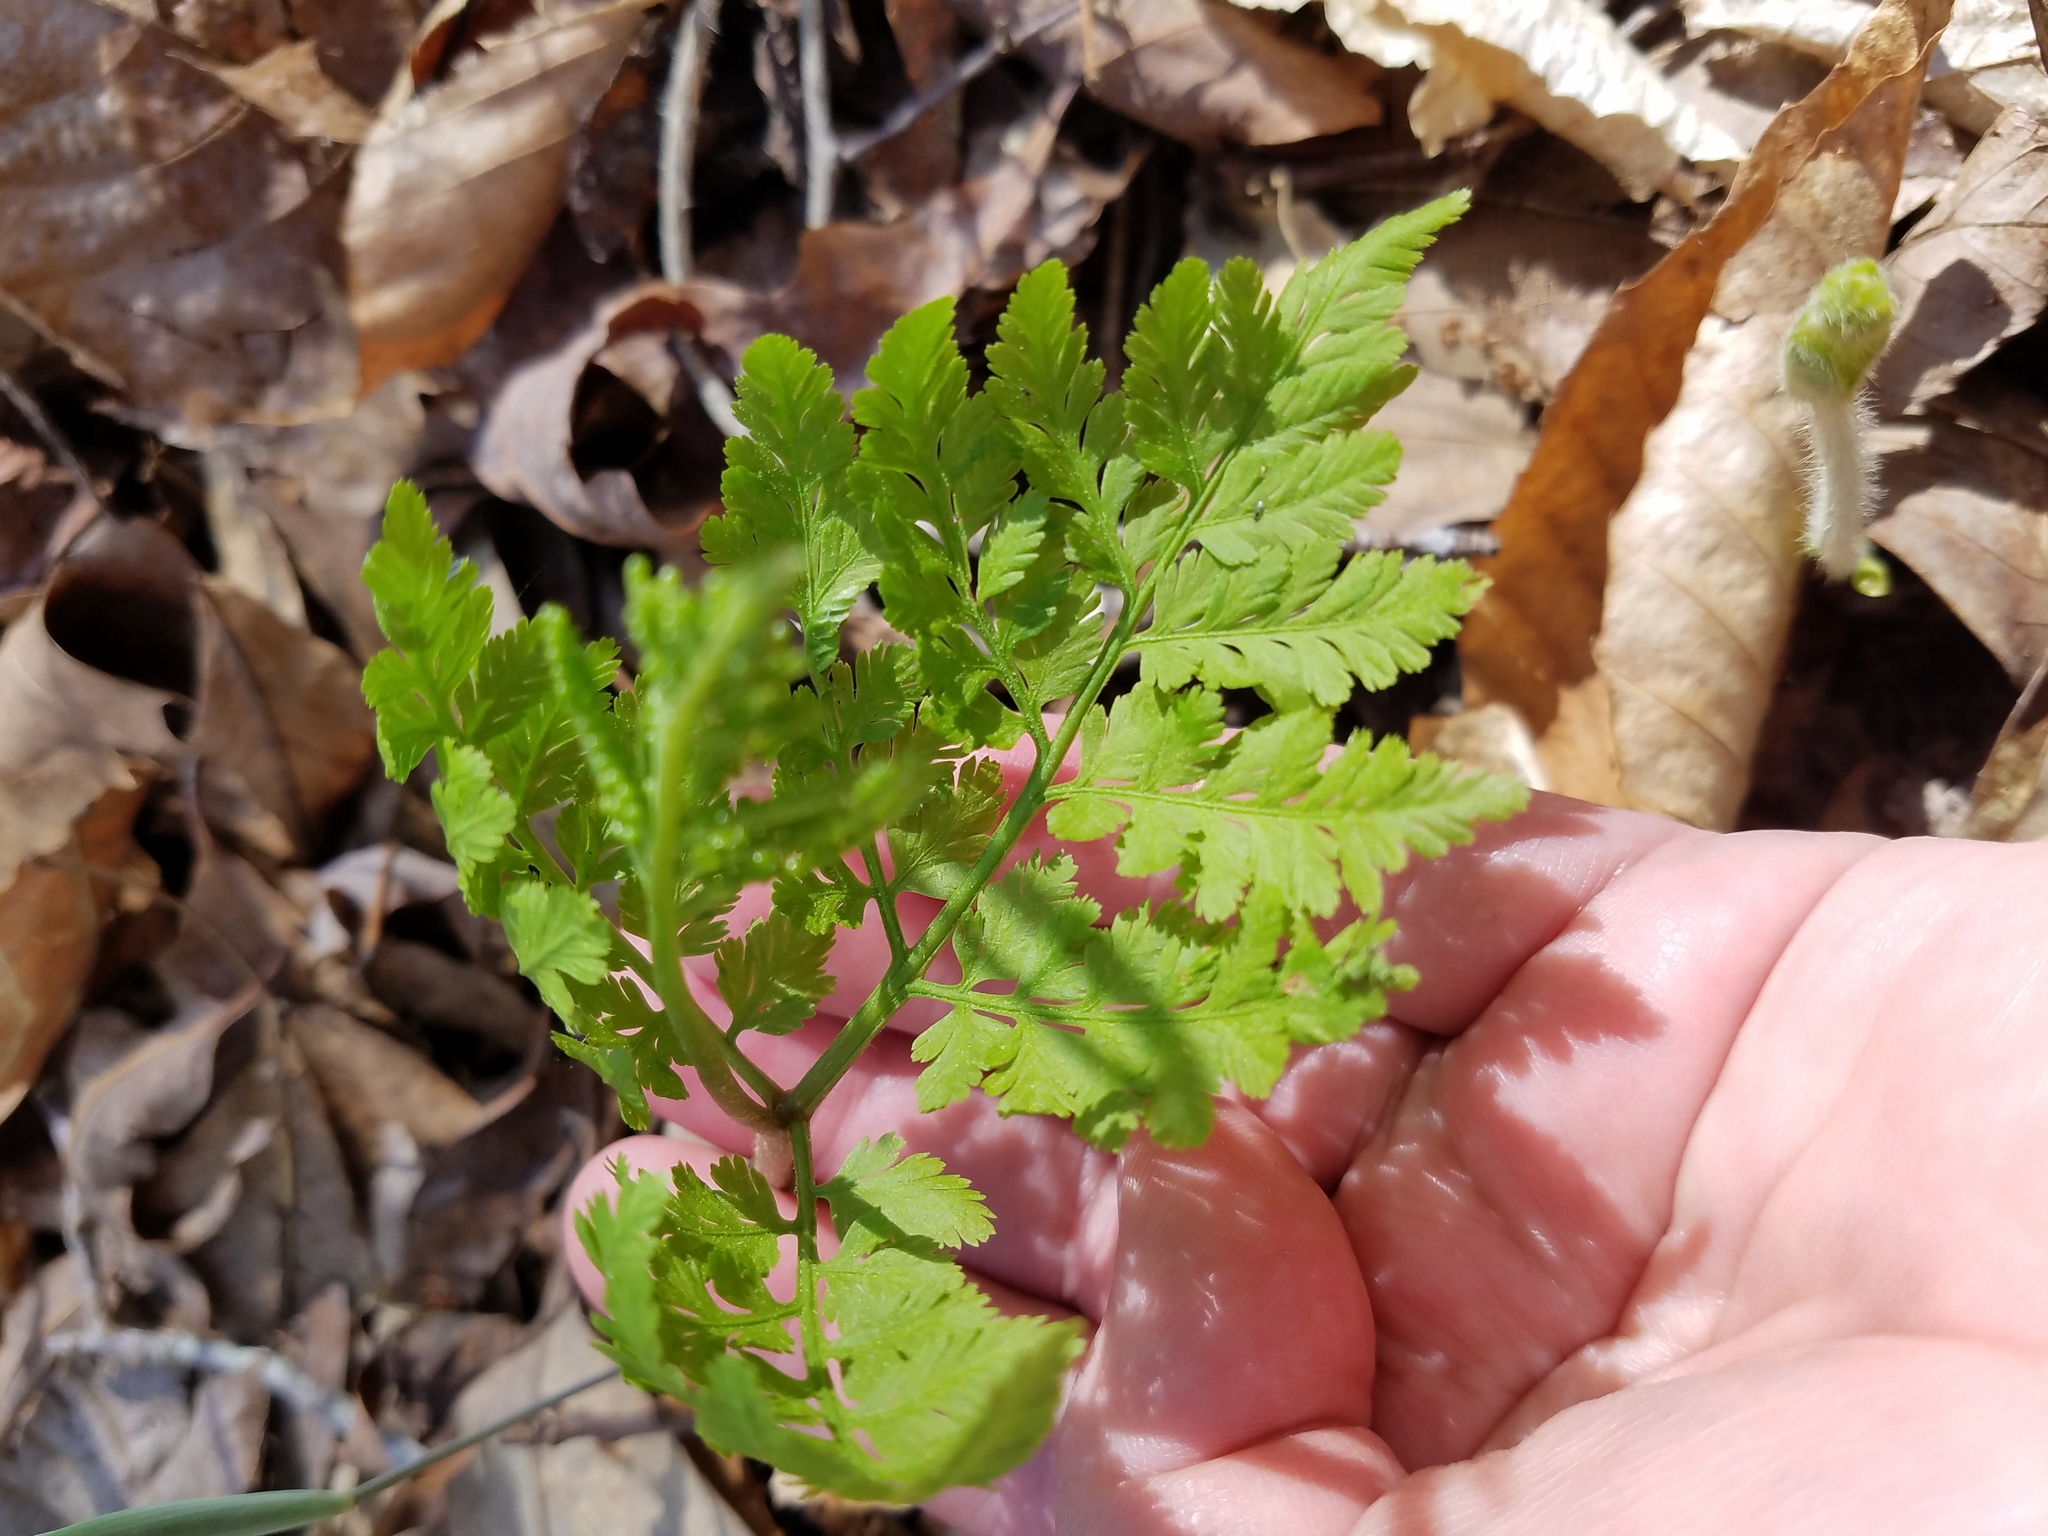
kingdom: Plantae
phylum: Tracheophyta
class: Polypodiopsida
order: Ophioglossales
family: Ophioglossaceae
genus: Botrypus
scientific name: Botrypus virginianus
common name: Common grapefern
